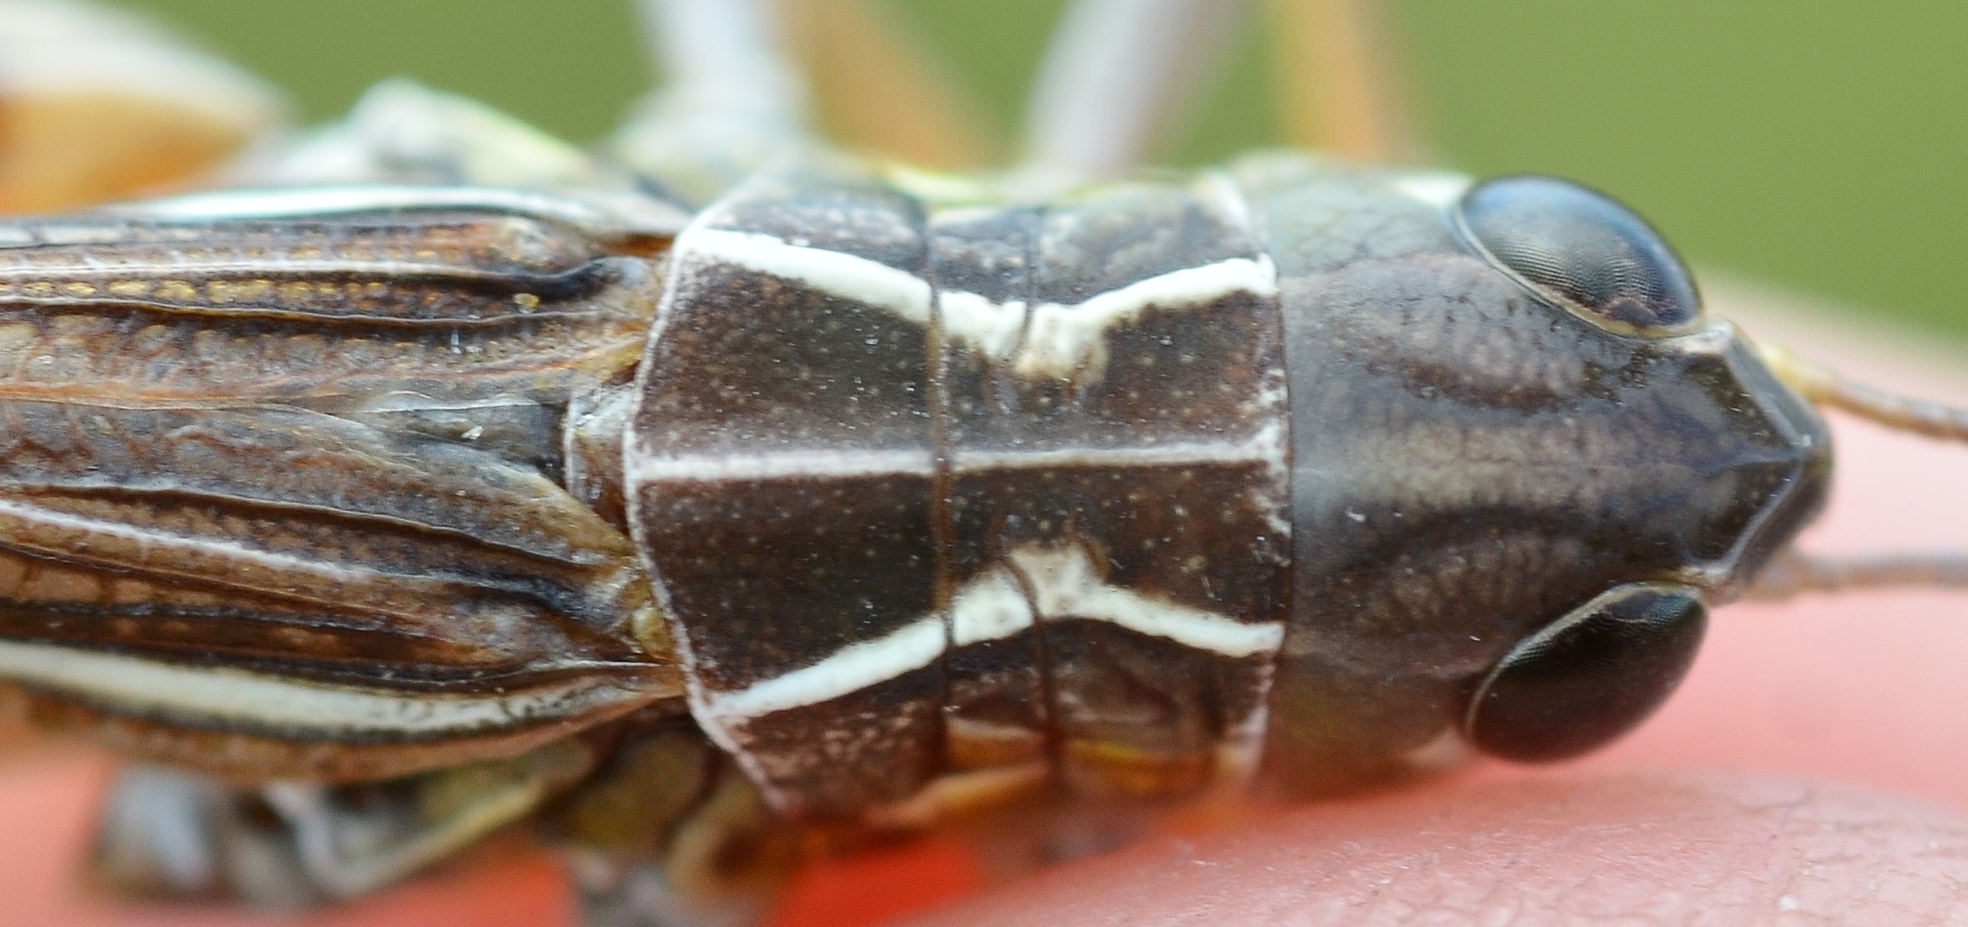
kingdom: Animalia
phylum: Arthropoda
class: Insecta
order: Orthoptera
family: Acrididae
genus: Arcyptera
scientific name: Arcyptera microptera
